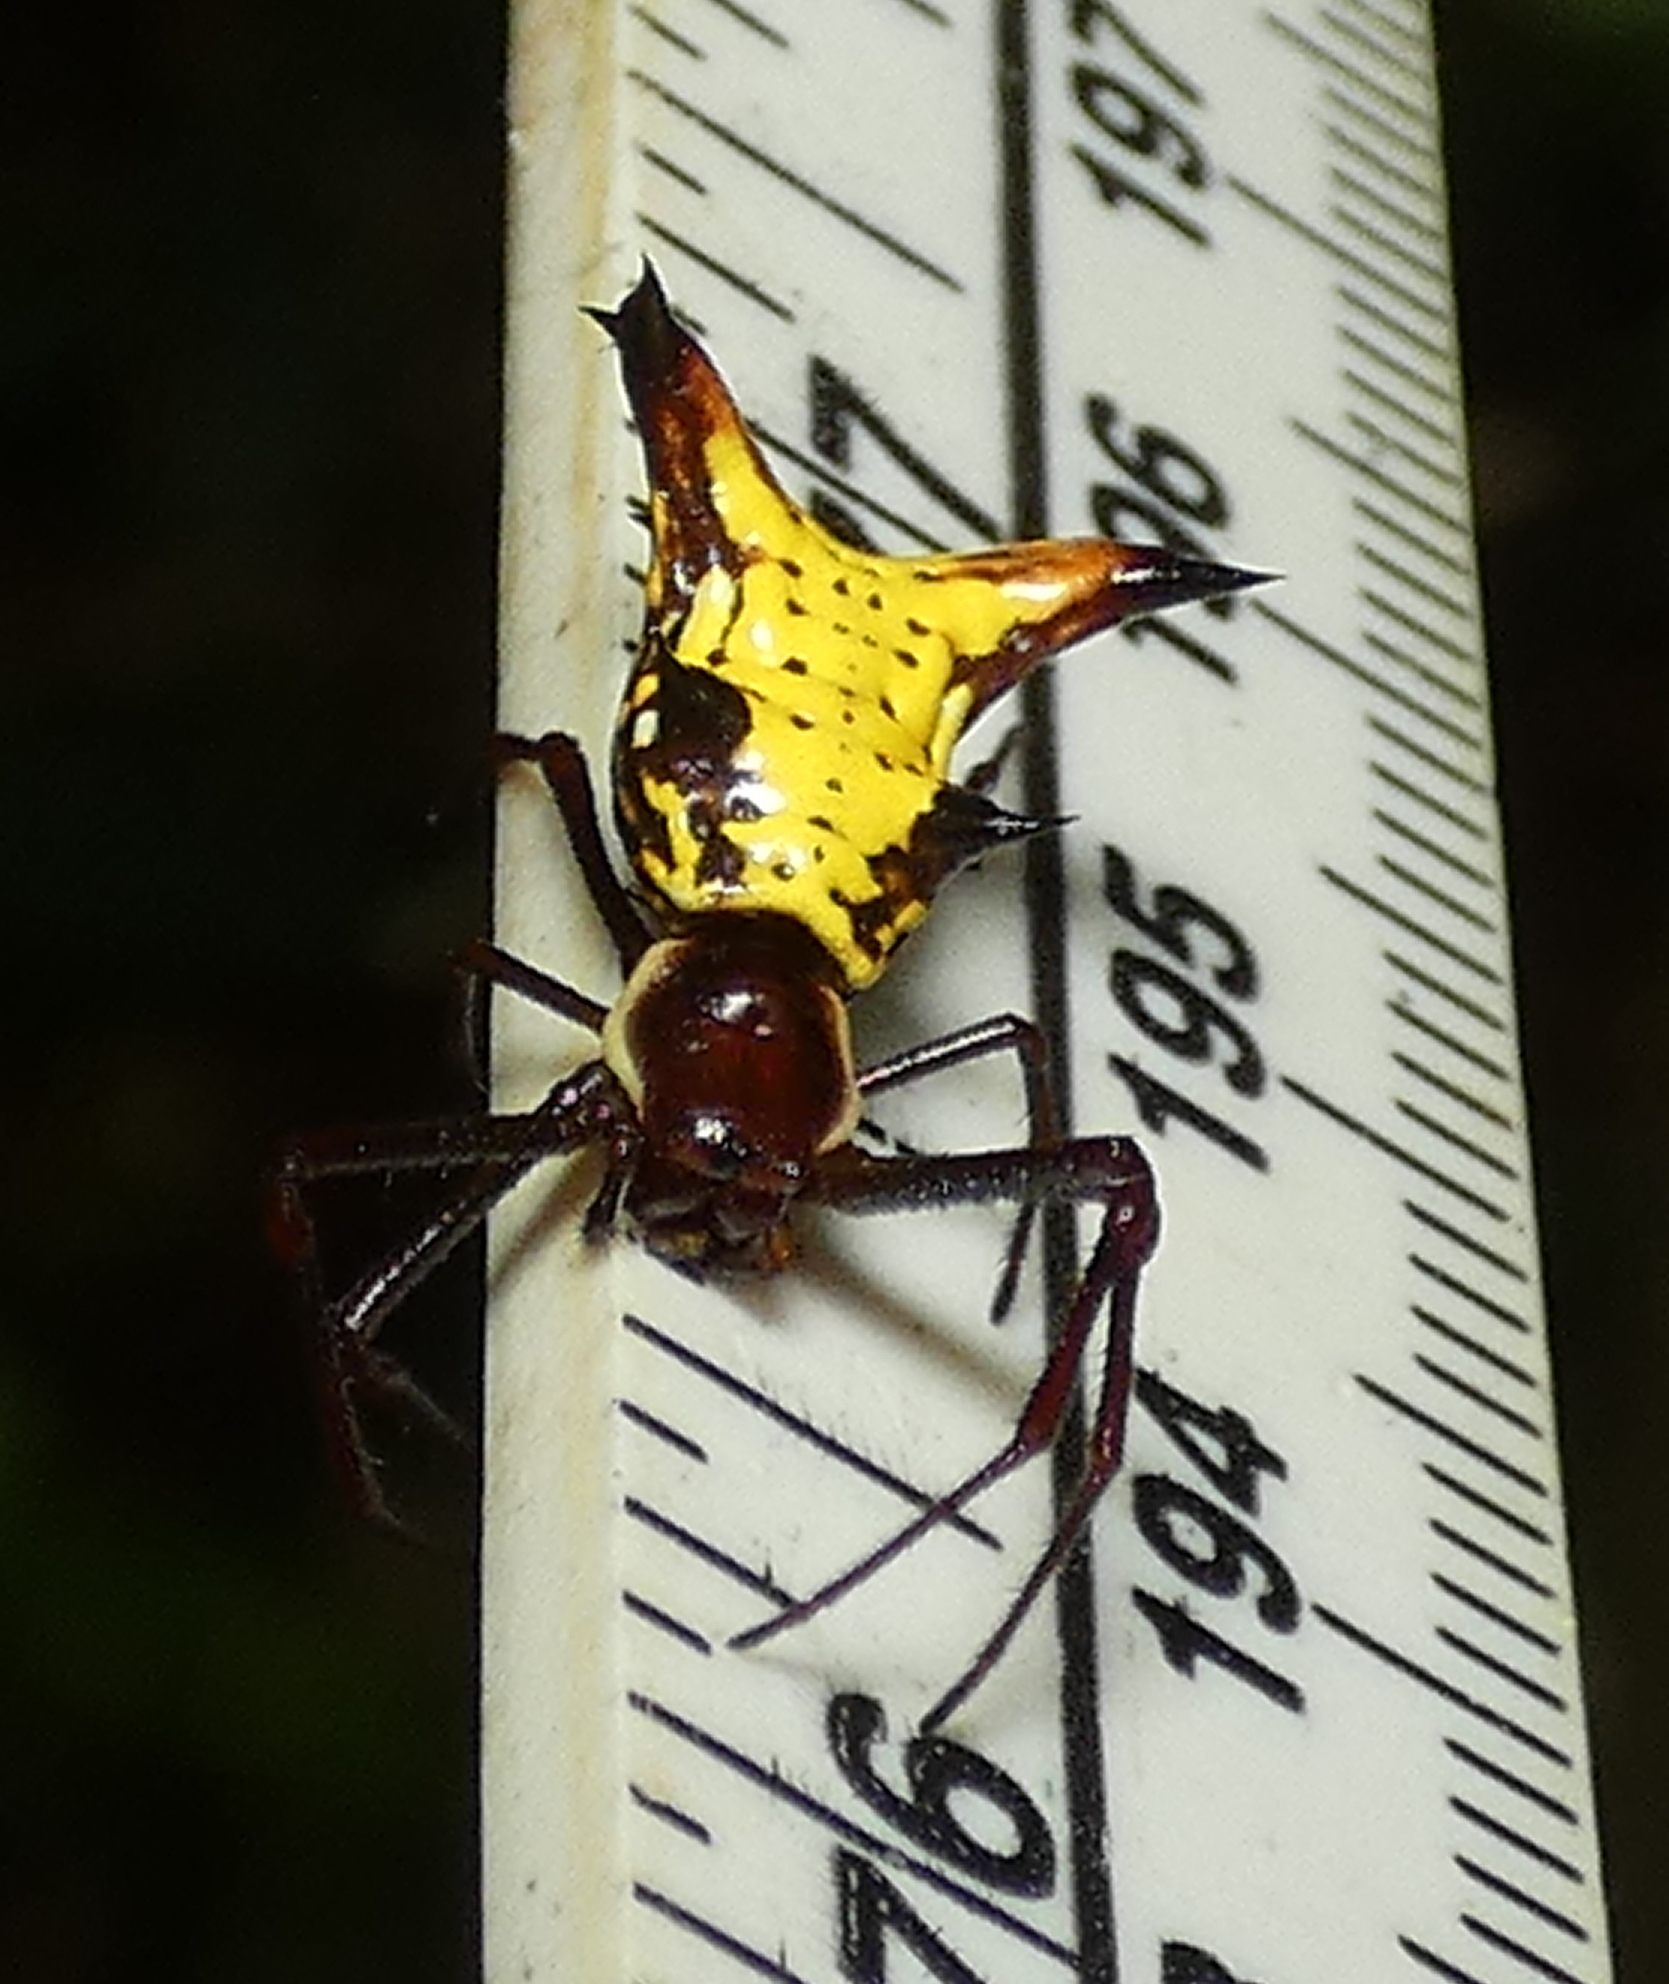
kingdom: Animalia
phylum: Arthropoda
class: Arachnida
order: Araneae
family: Araneidae
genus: Micrathena
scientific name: Micrathena fissispina
